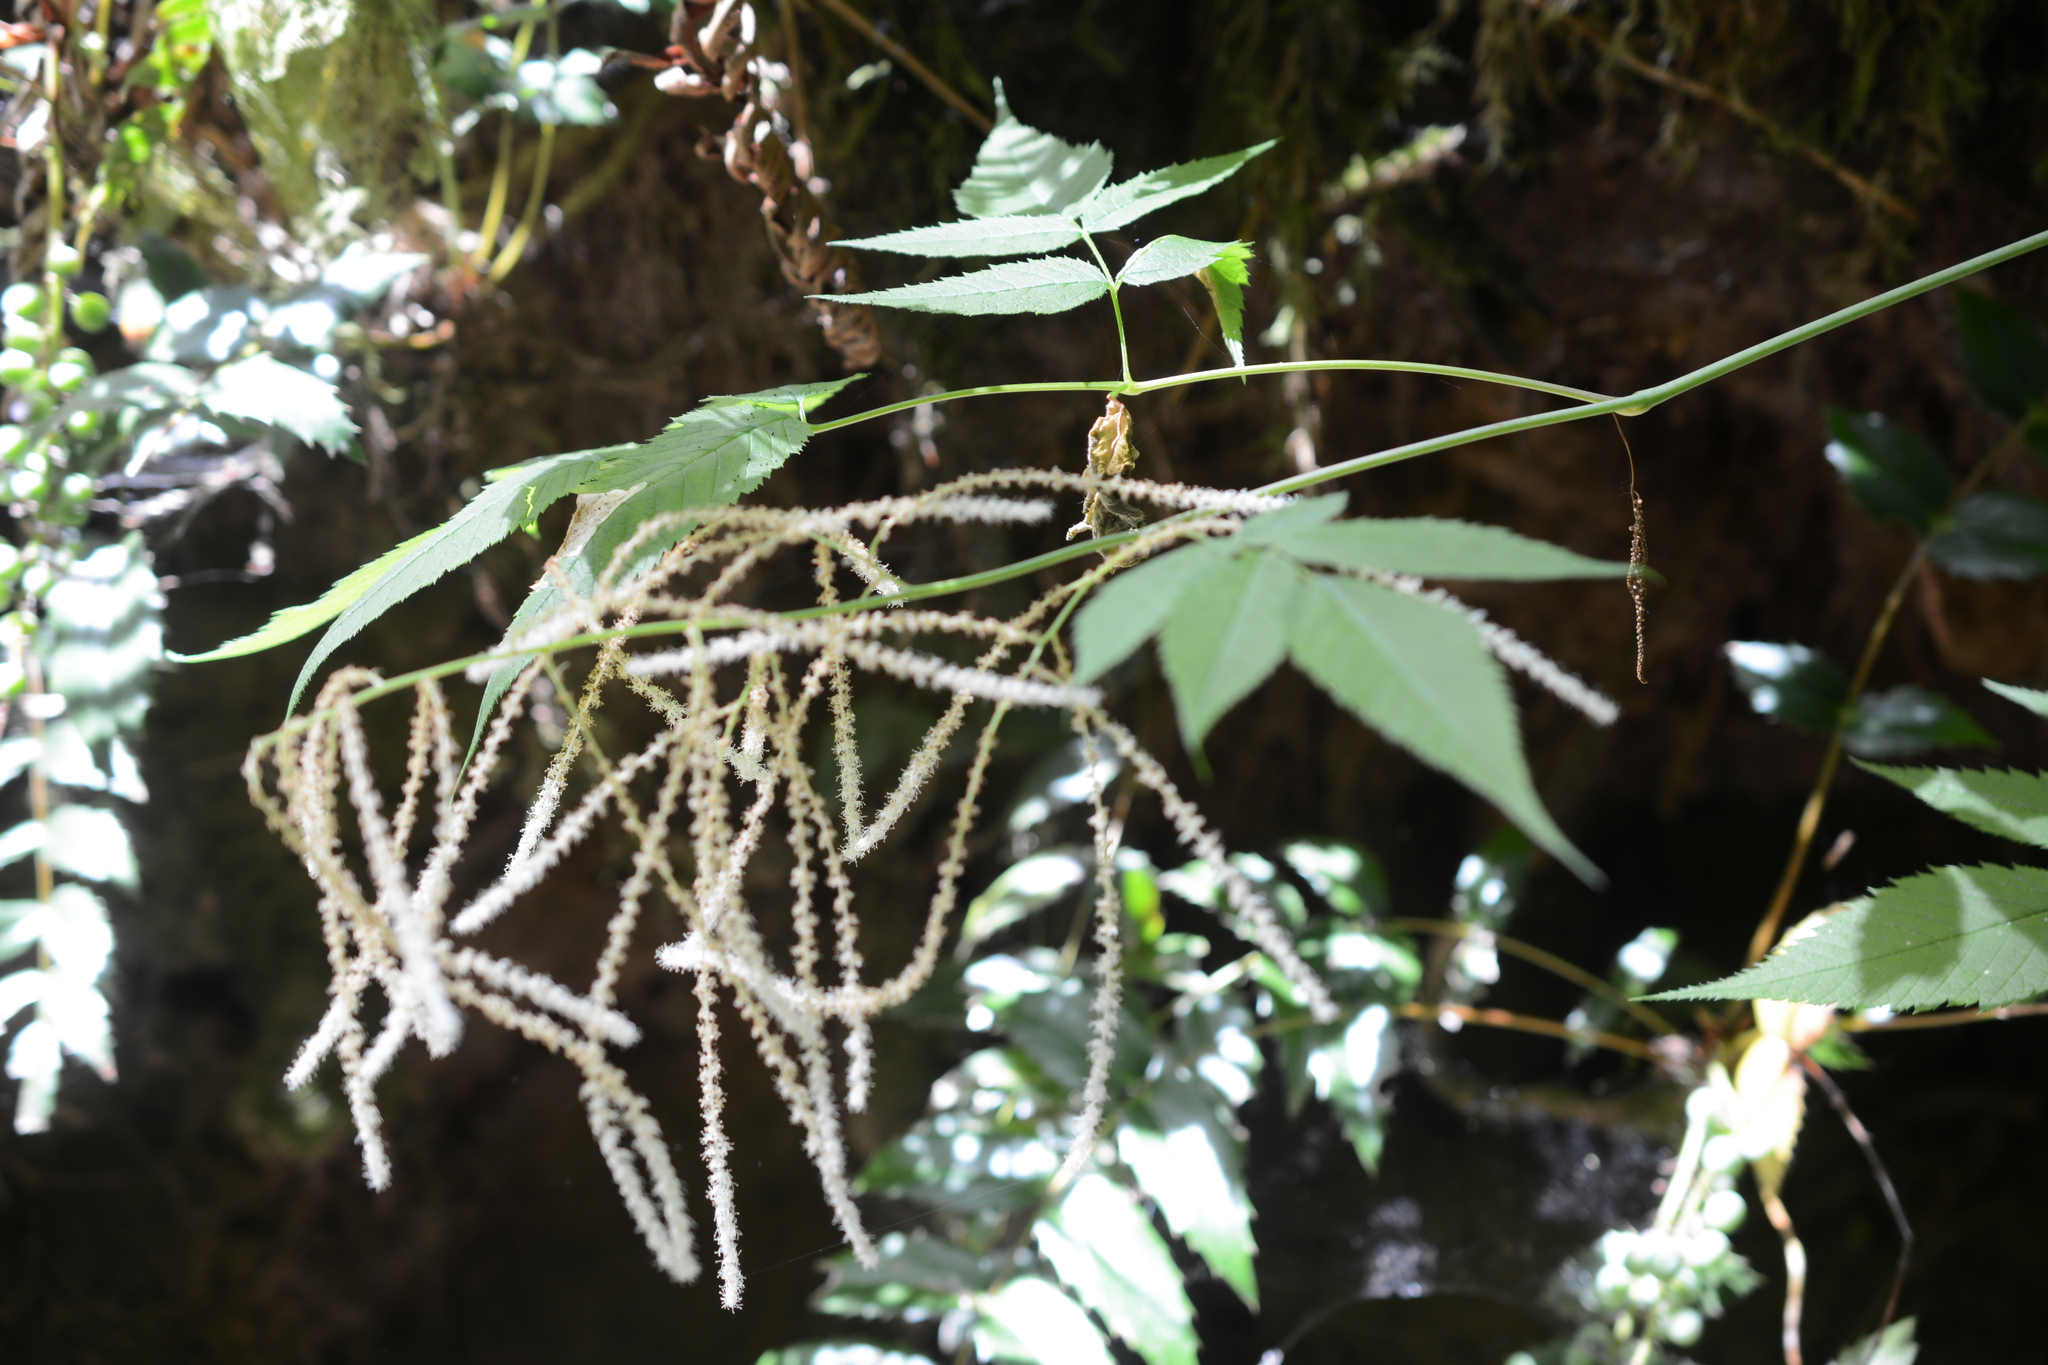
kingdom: Plantae
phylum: Tracheophyta
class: Magnoliopsida
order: Rosales
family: Rosaceae
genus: Aruncus
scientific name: Aruncus dioicus
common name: Buck's-beard
